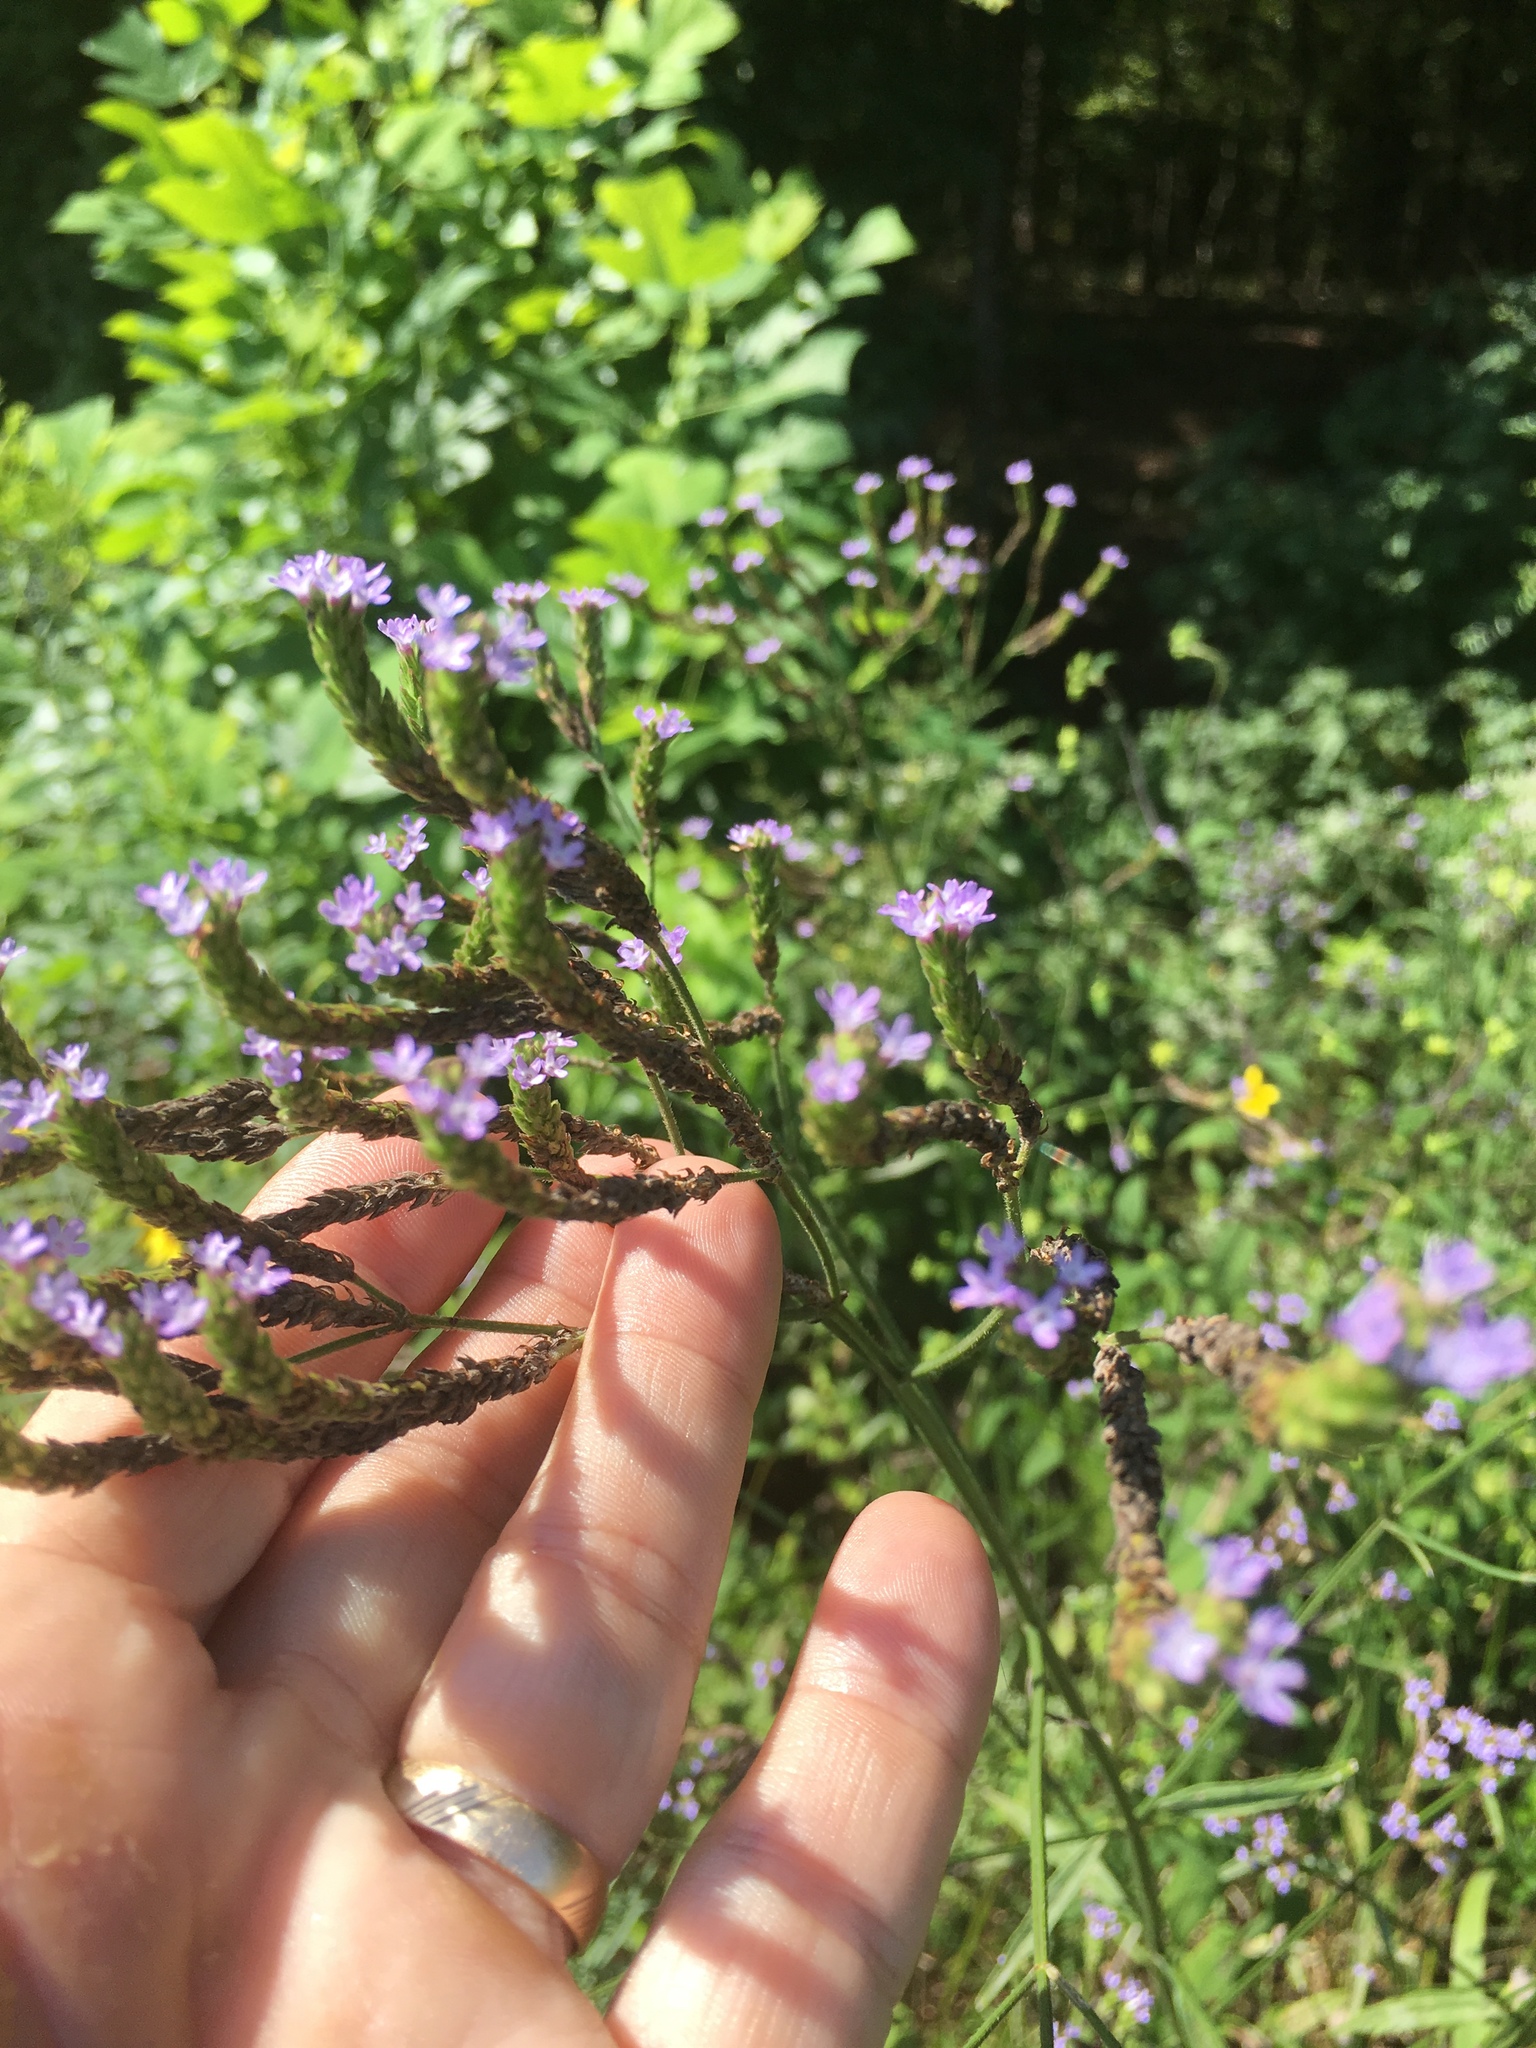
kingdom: Plantae
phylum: Tracheophyta
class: Magnoliopsida
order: Lamiales
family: Verbenaceae
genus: Verbena
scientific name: Verbena brasiliensis
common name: Brazilian vervain
